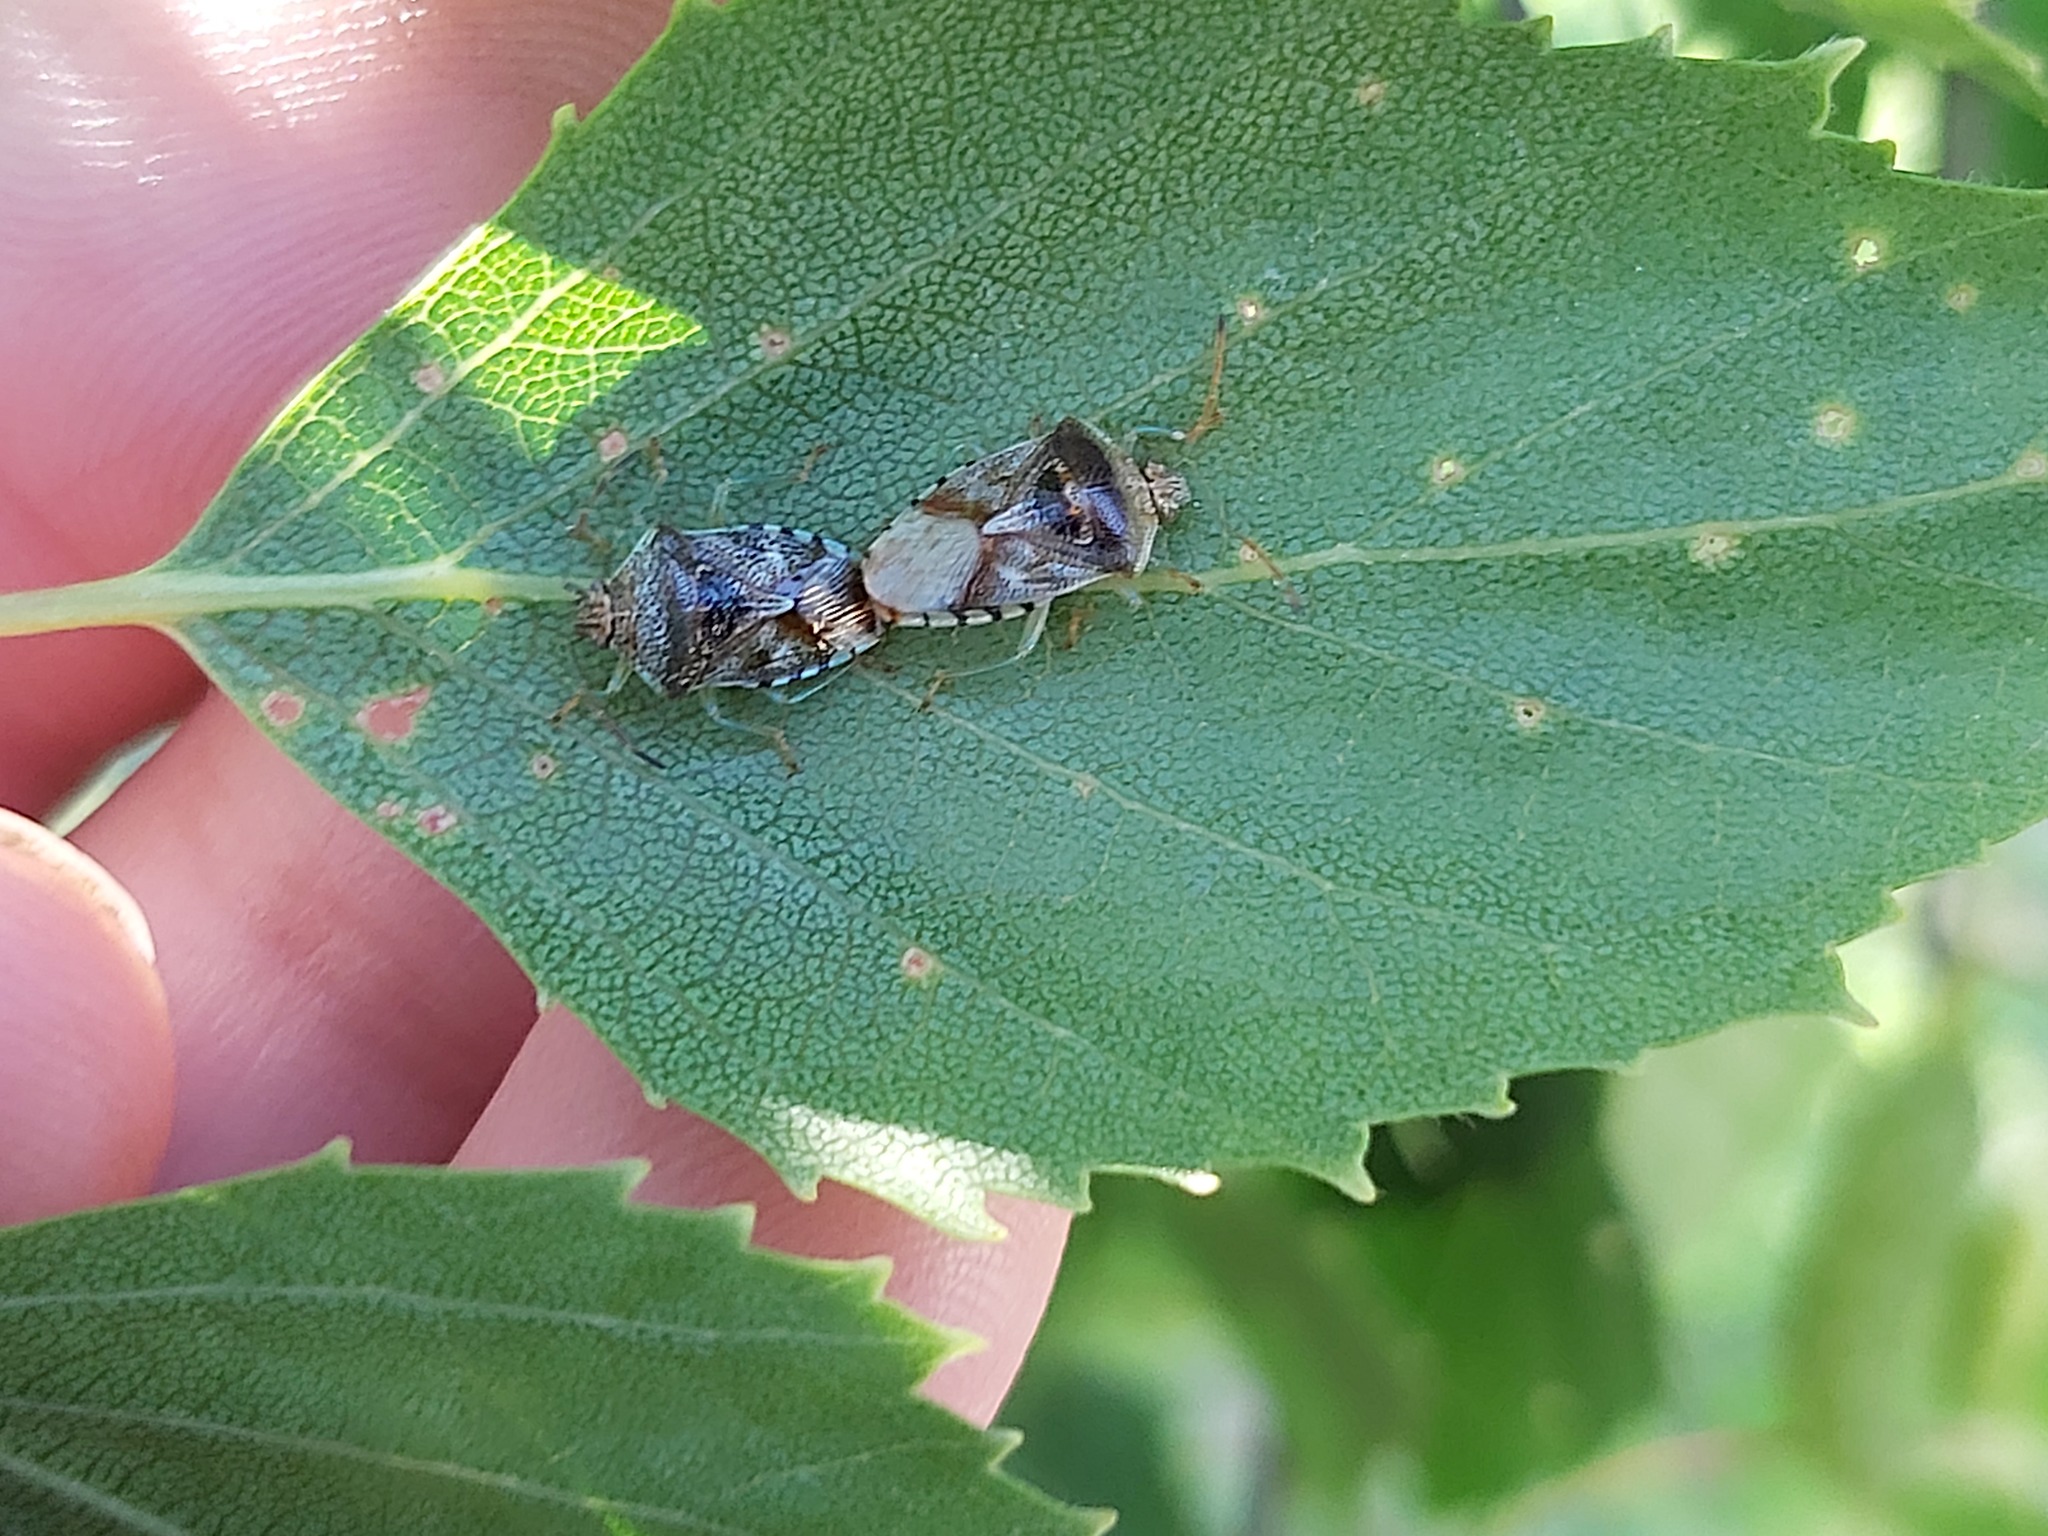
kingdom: Animalia
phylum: Arthropoda
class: Insecta
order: Hemiptera
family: Acanthosomatidae
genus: Elasmucha
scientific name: Elasmucha grisea
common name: Parent bug
